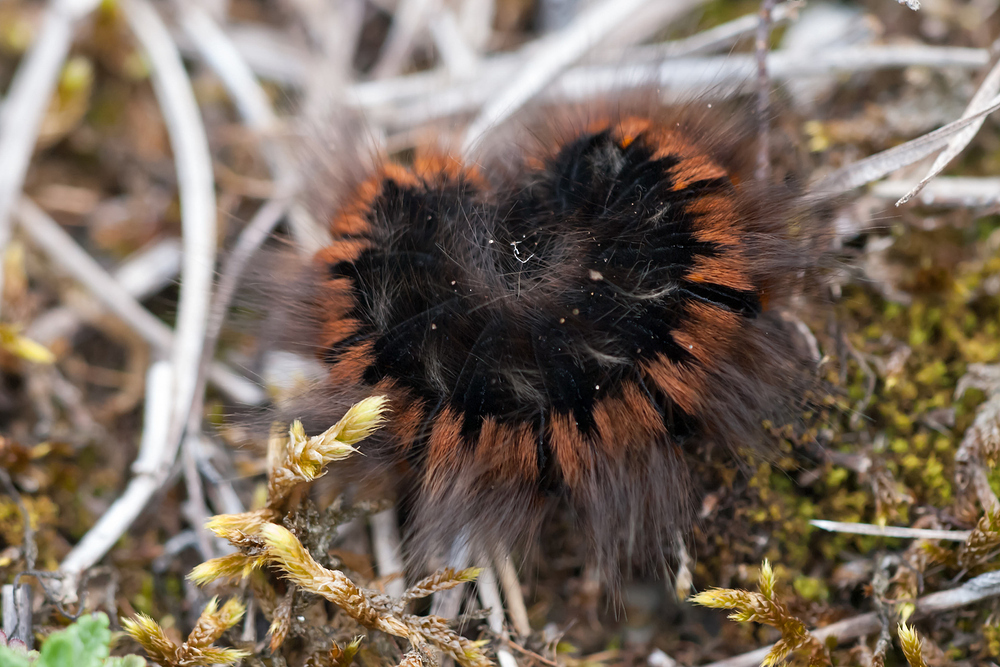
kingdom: Animalia
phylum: Arthropoda
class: Insecta
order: Lepidoptera
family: Lasiocampidae
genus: Macrothylacia
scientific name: Macrothylacia rubi
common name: Fox moth
